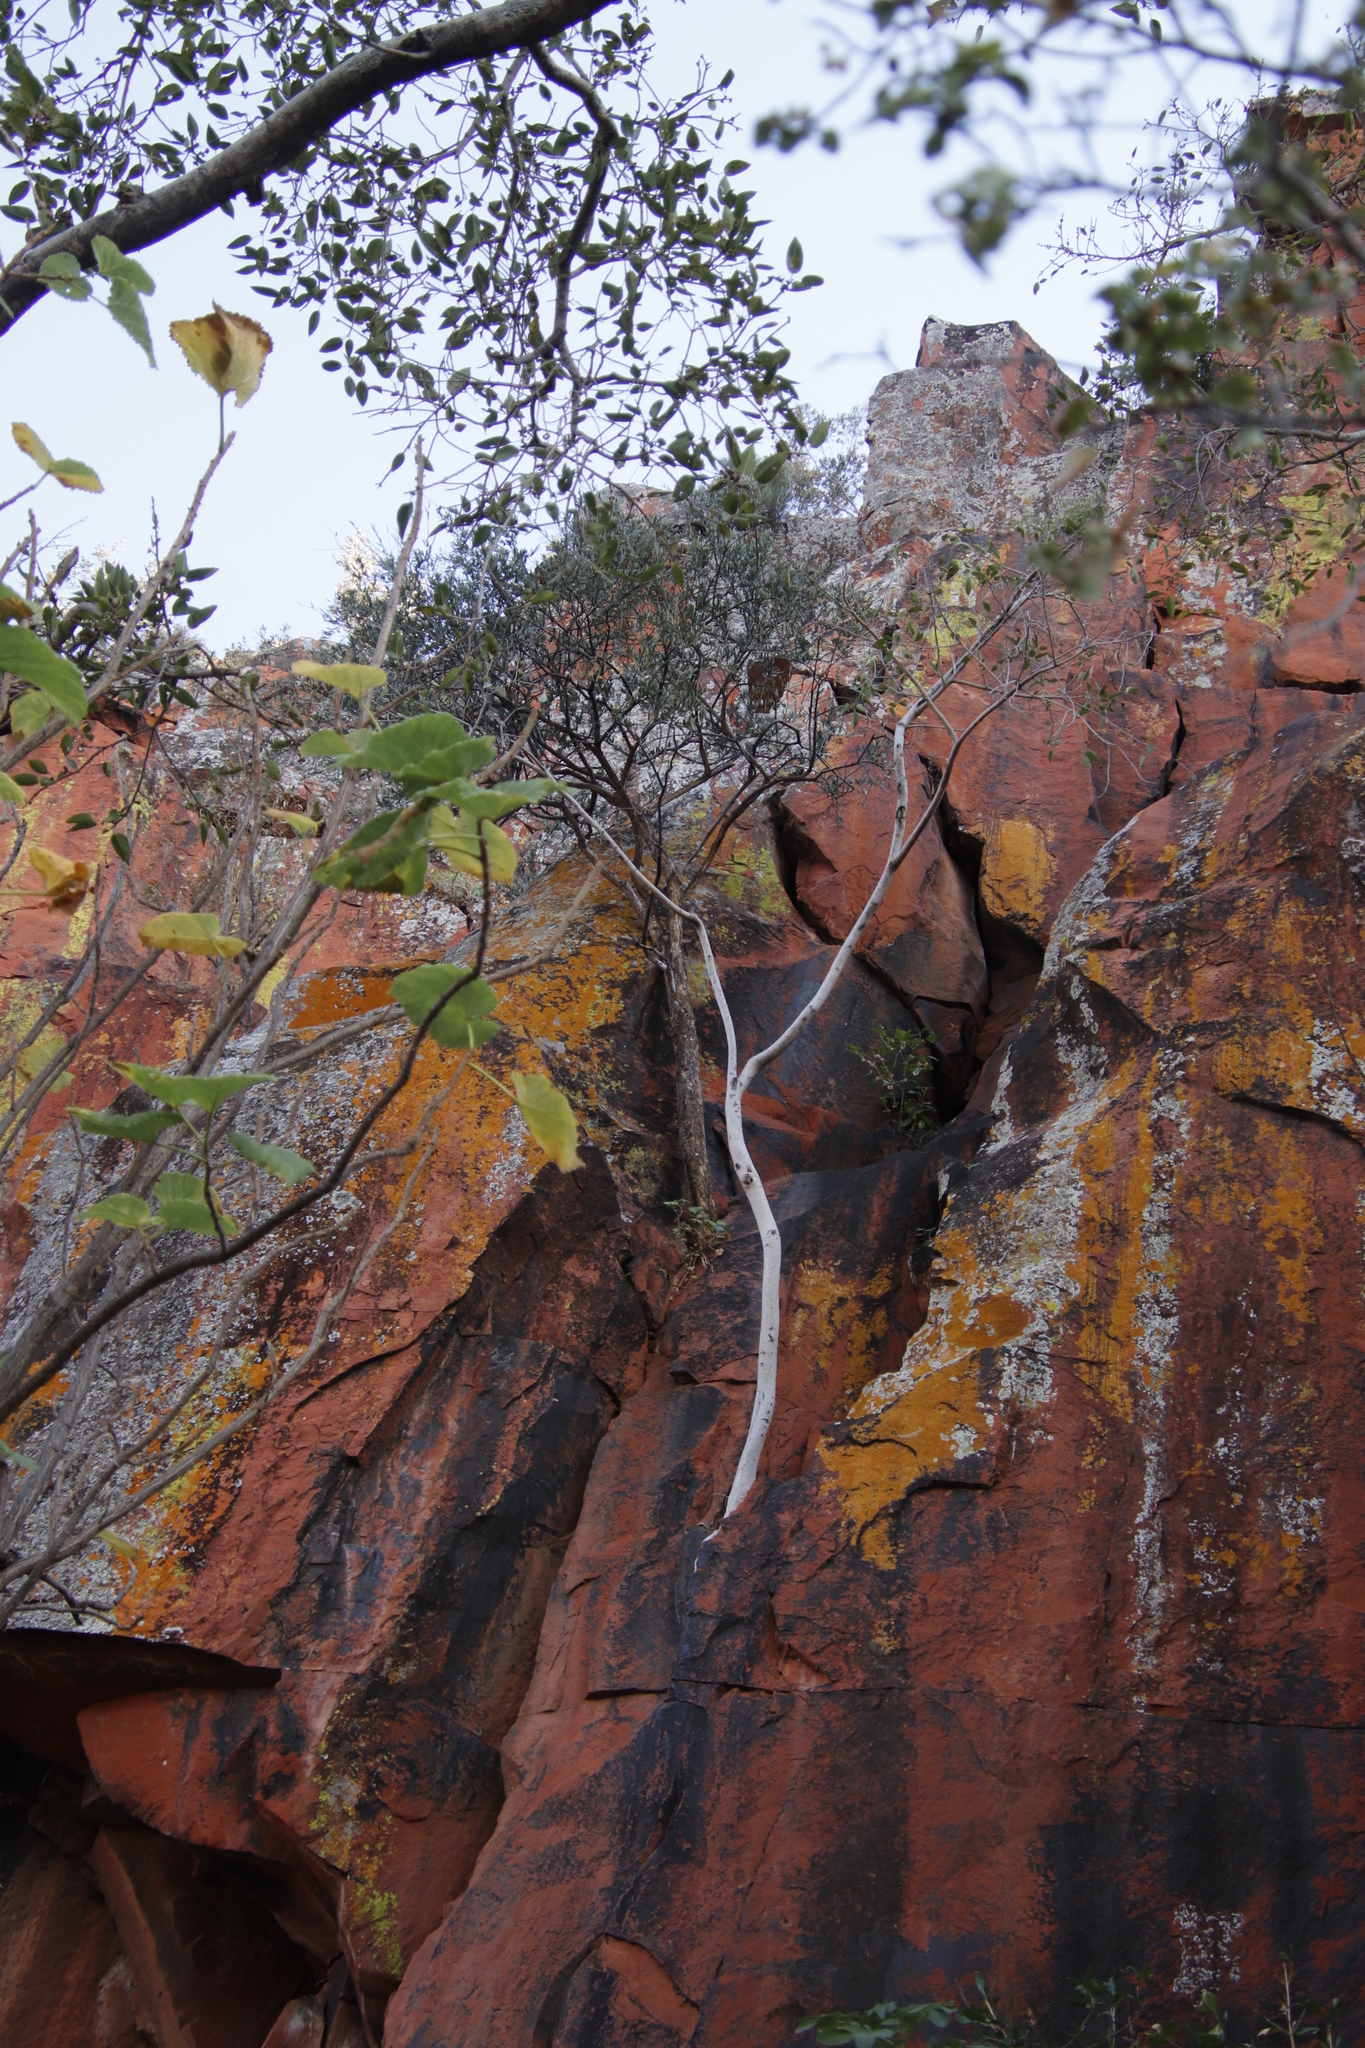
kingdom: Plantae
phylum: Tracheophyta
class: Magnoliopsida
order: Rosales
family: Moraceae
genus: Ficus
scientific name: Ficus cordata
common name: Namaqua rock fig
